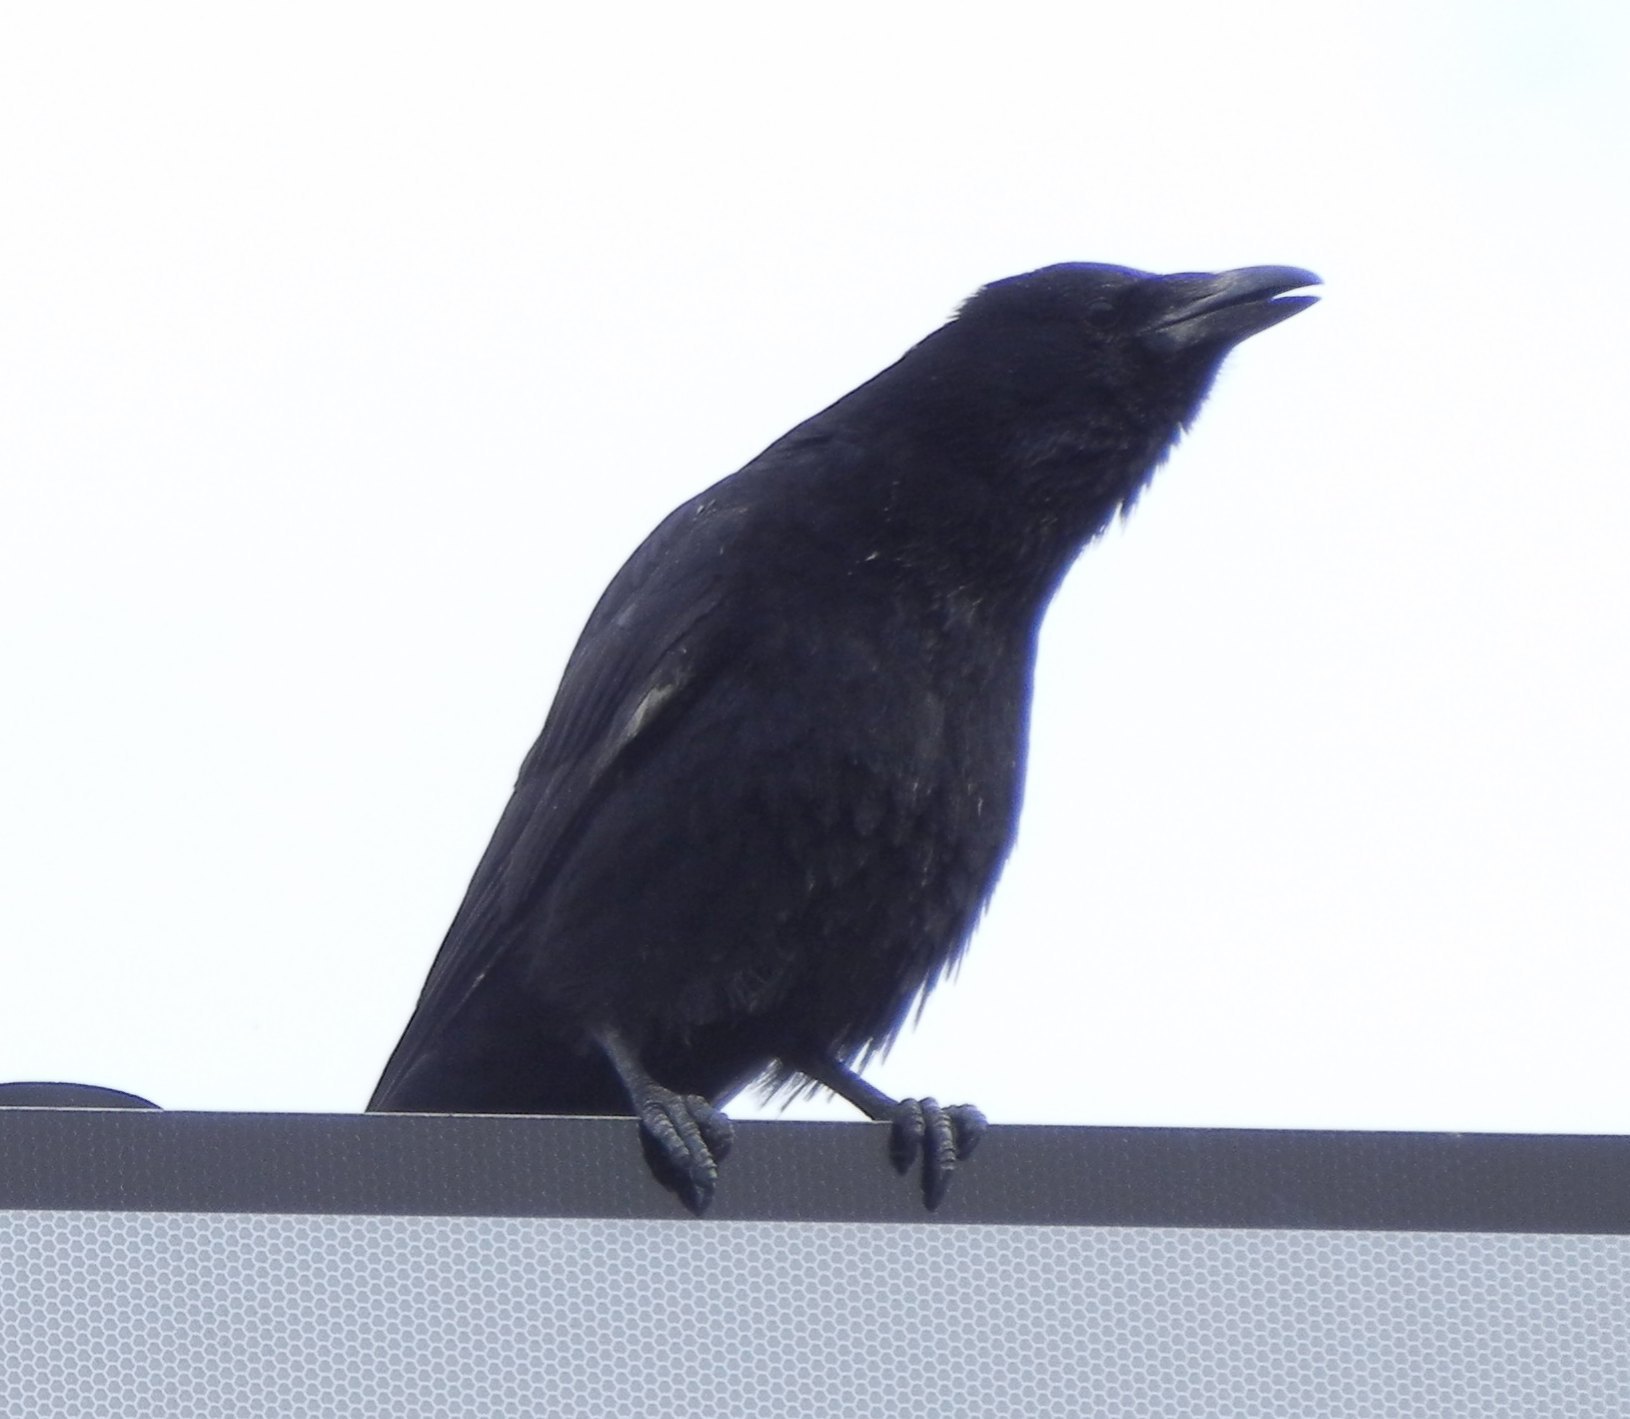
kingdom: Animalia
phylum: Chordata
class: Aves
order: Passeriformes
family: Corvidae
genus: Corvus
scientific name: Corvus corone
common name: Carrion crow
